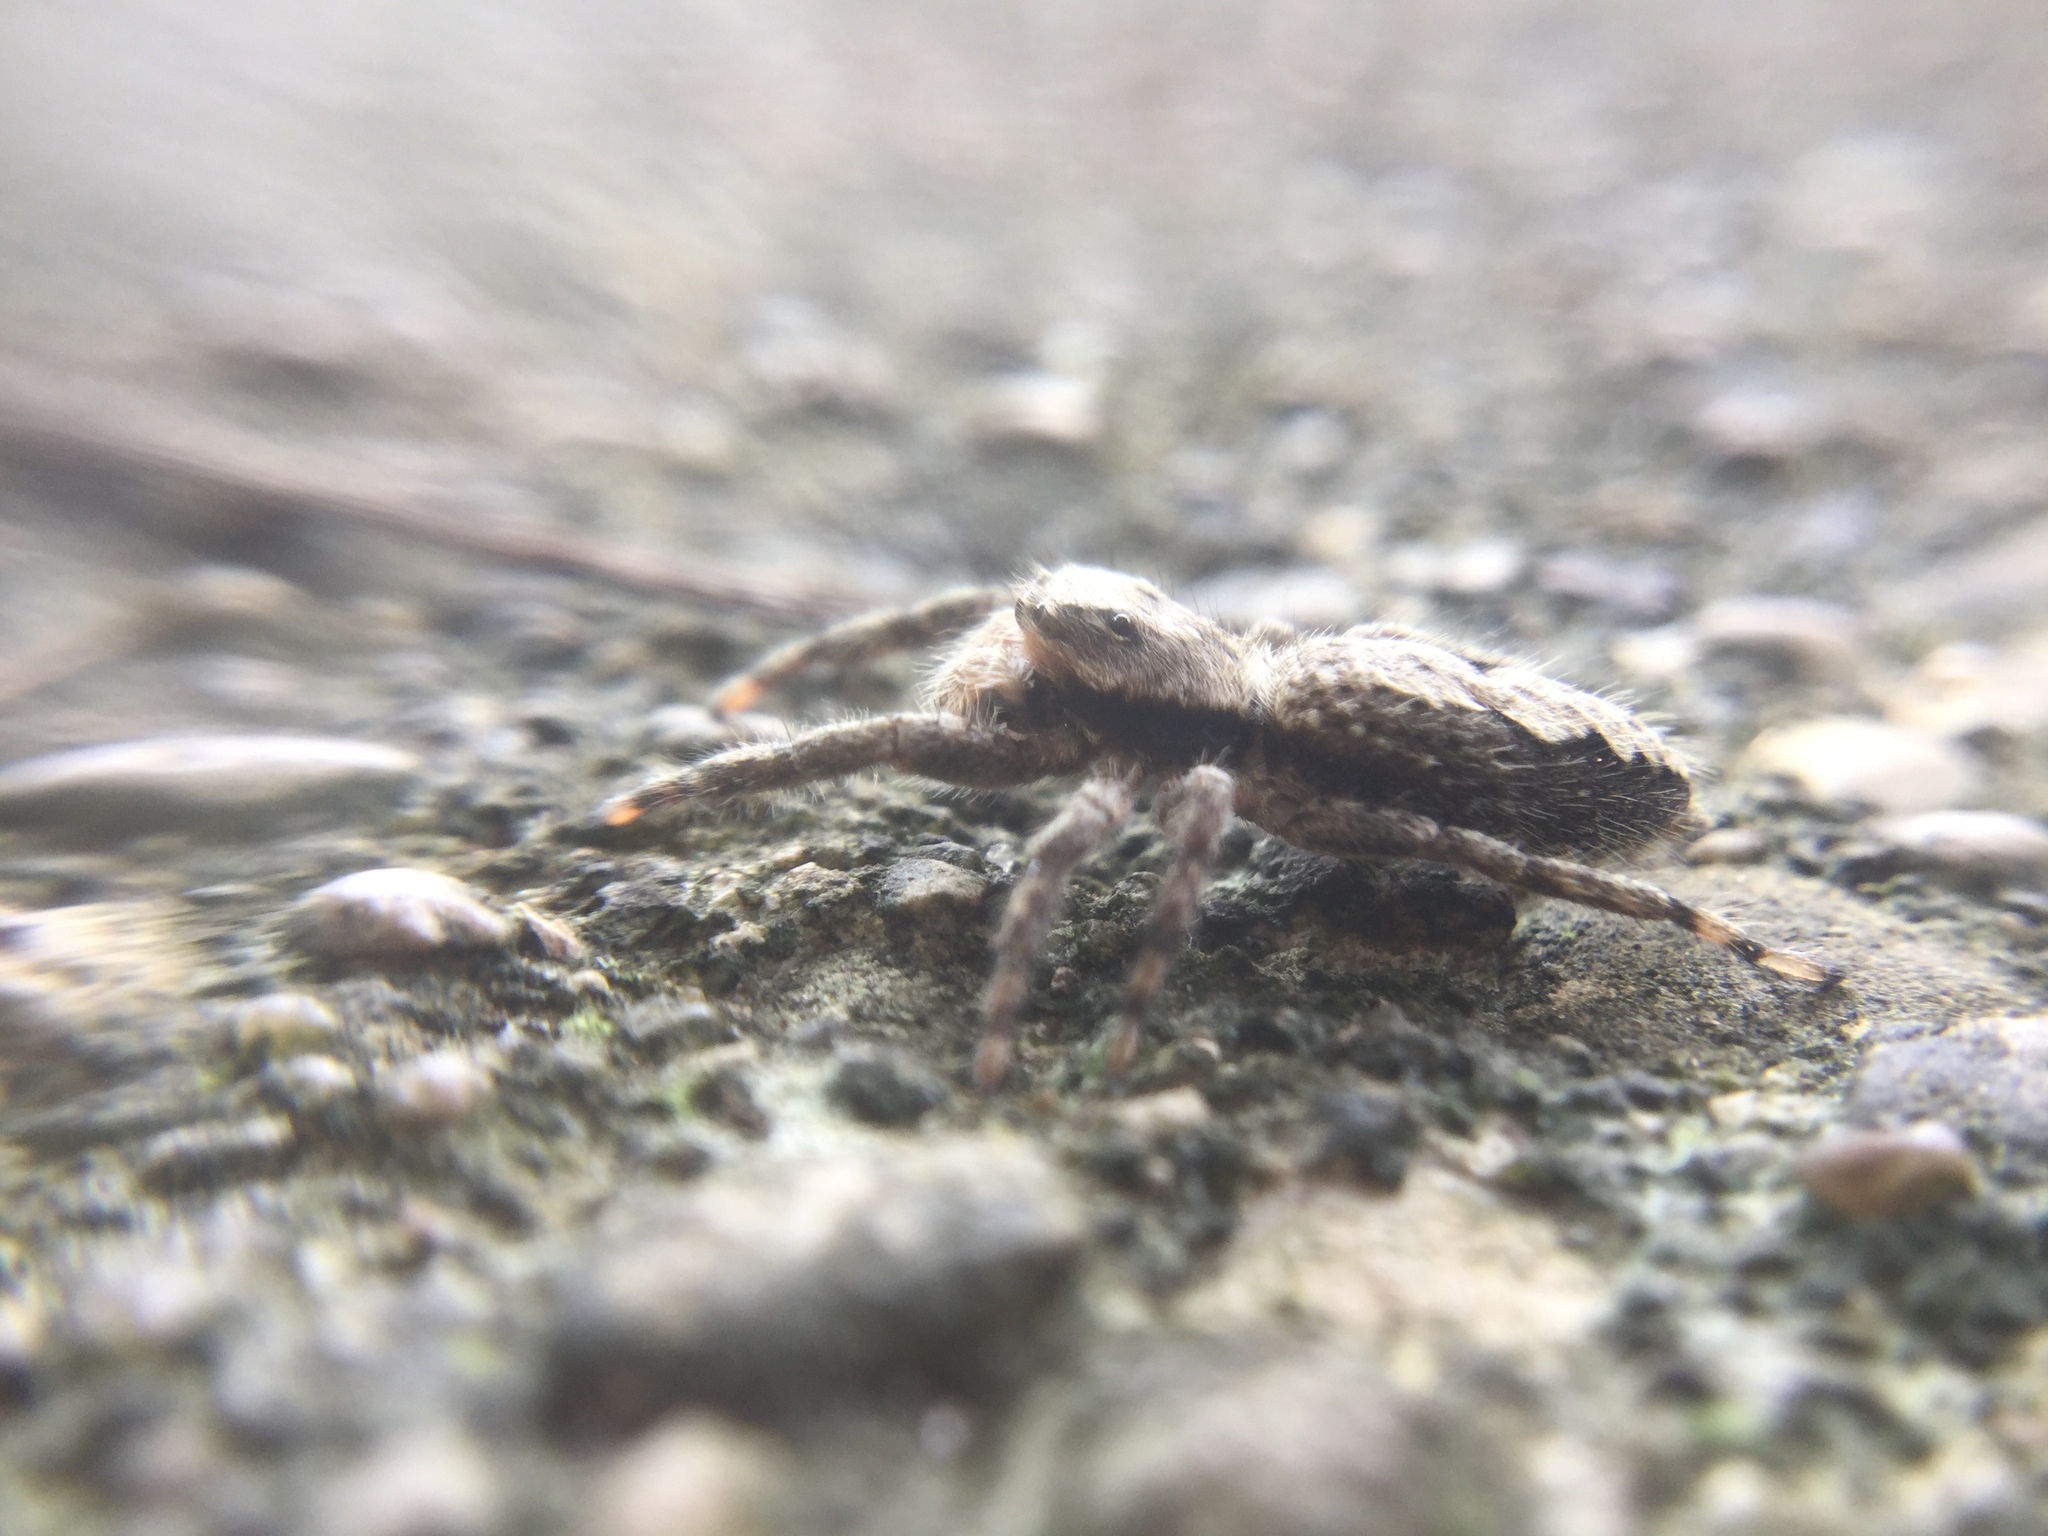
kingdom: Animalia
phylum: Arthropoda
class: Arachnida
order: Araneae
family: Salticidae
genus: Platycryptus
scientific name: Platycryptus undatus
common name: Tan jumping spider
